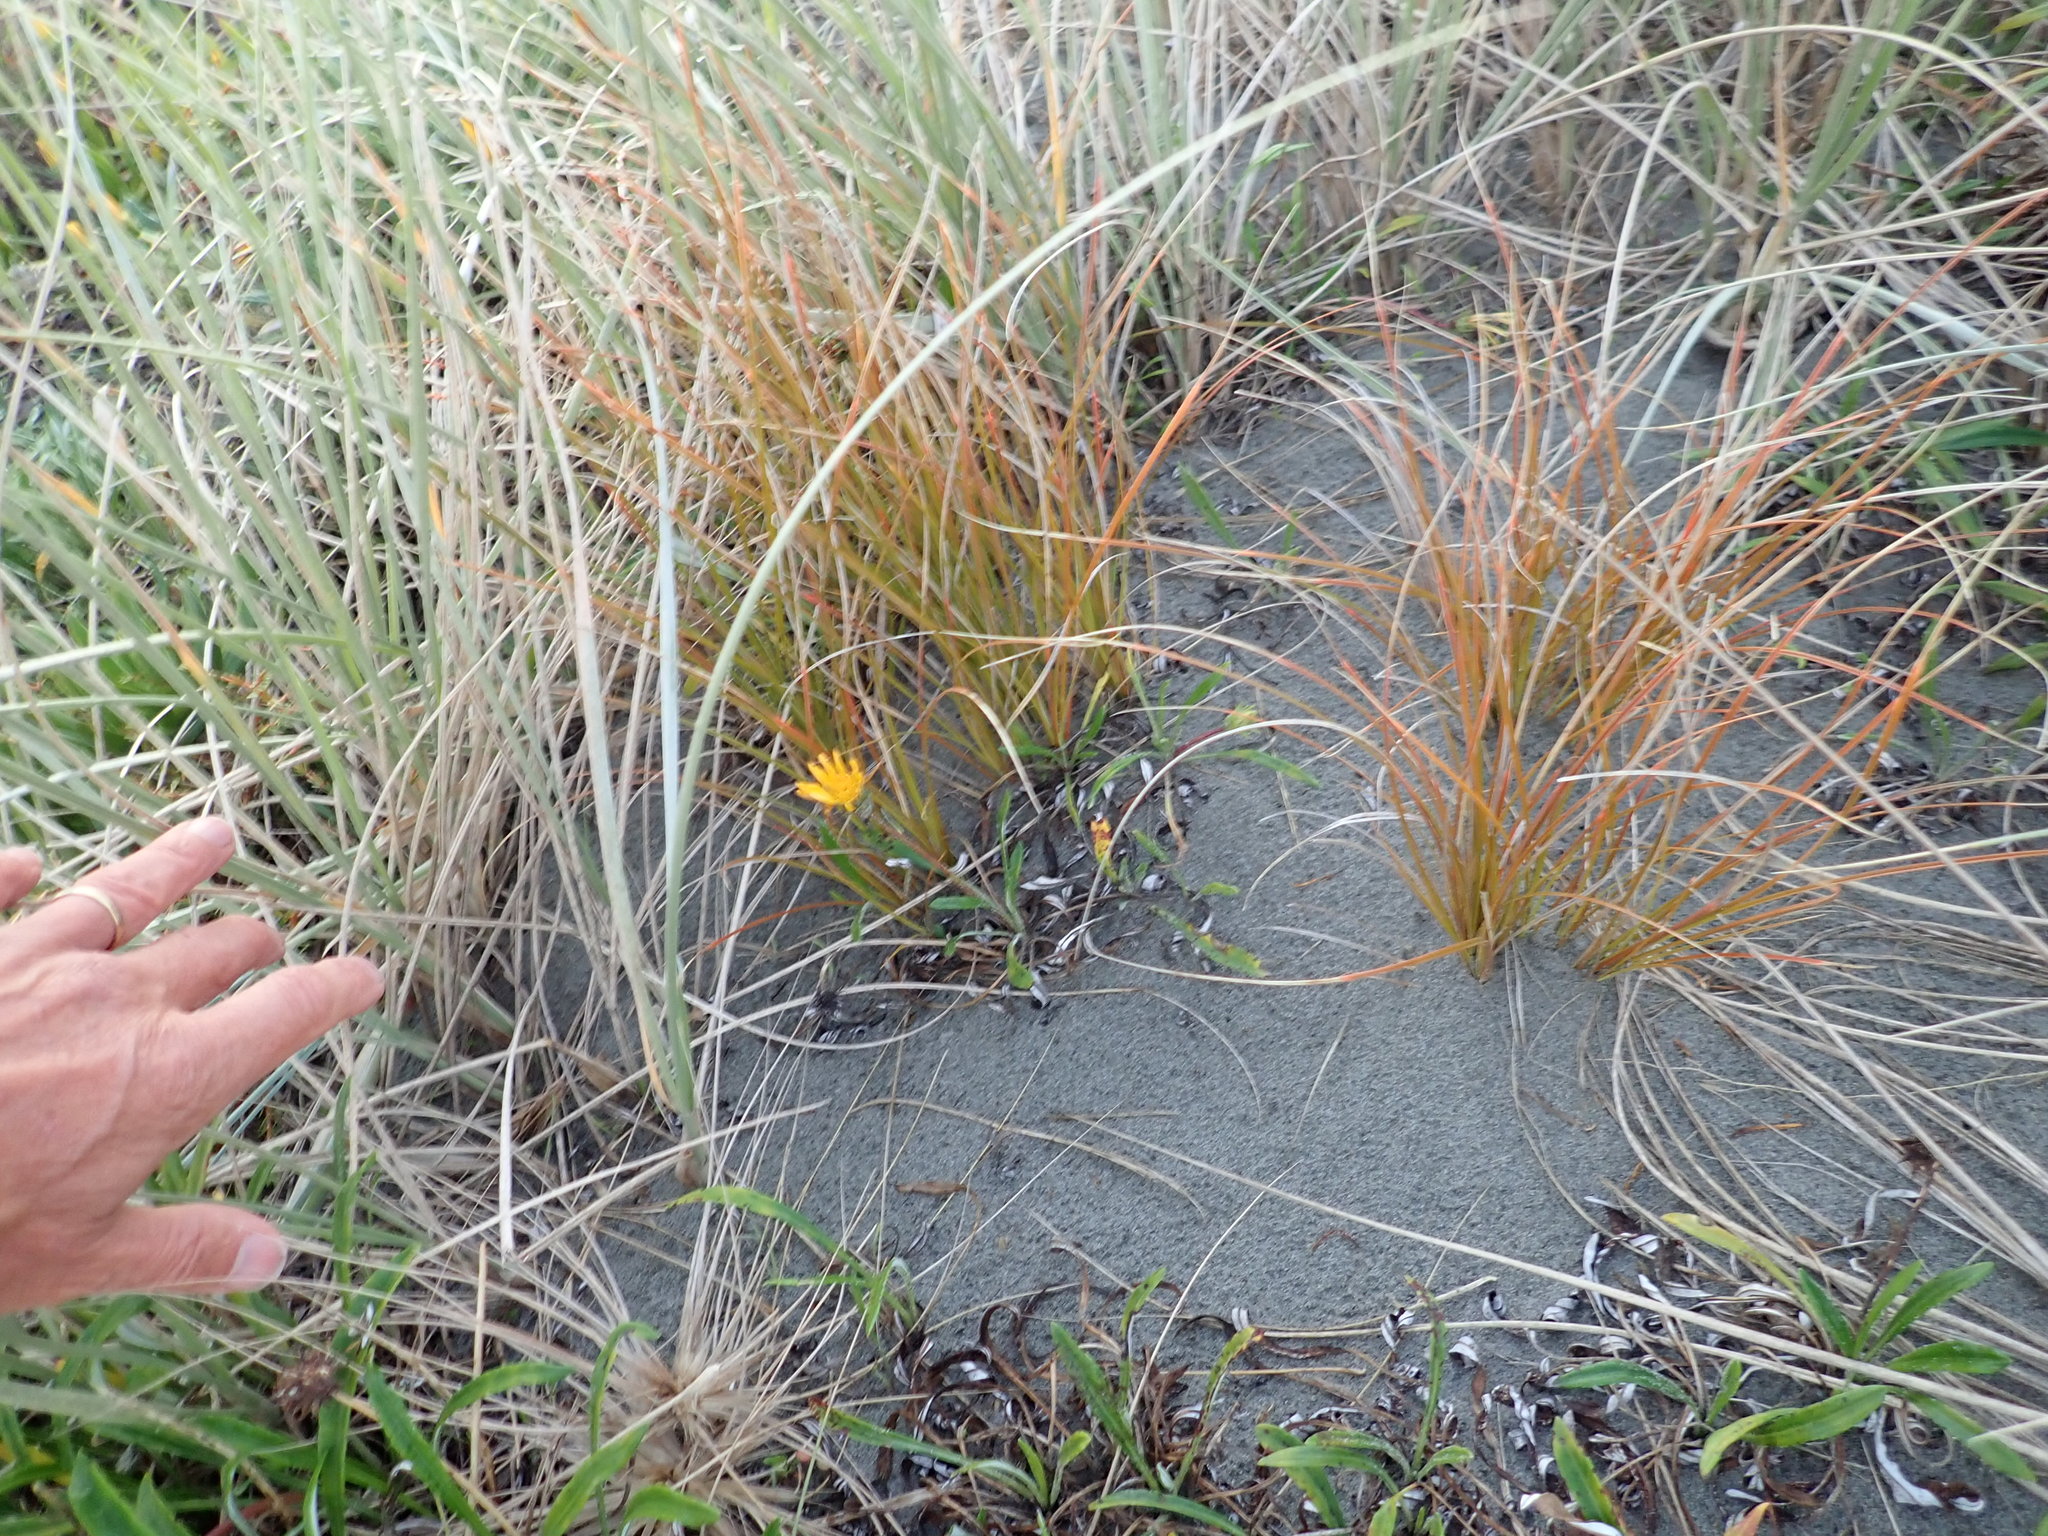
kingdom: Plantae
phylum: Tracheophyta
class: Liliopsida
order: Poales
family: Cyperaceae
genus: Carex
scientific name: Carex testacea
